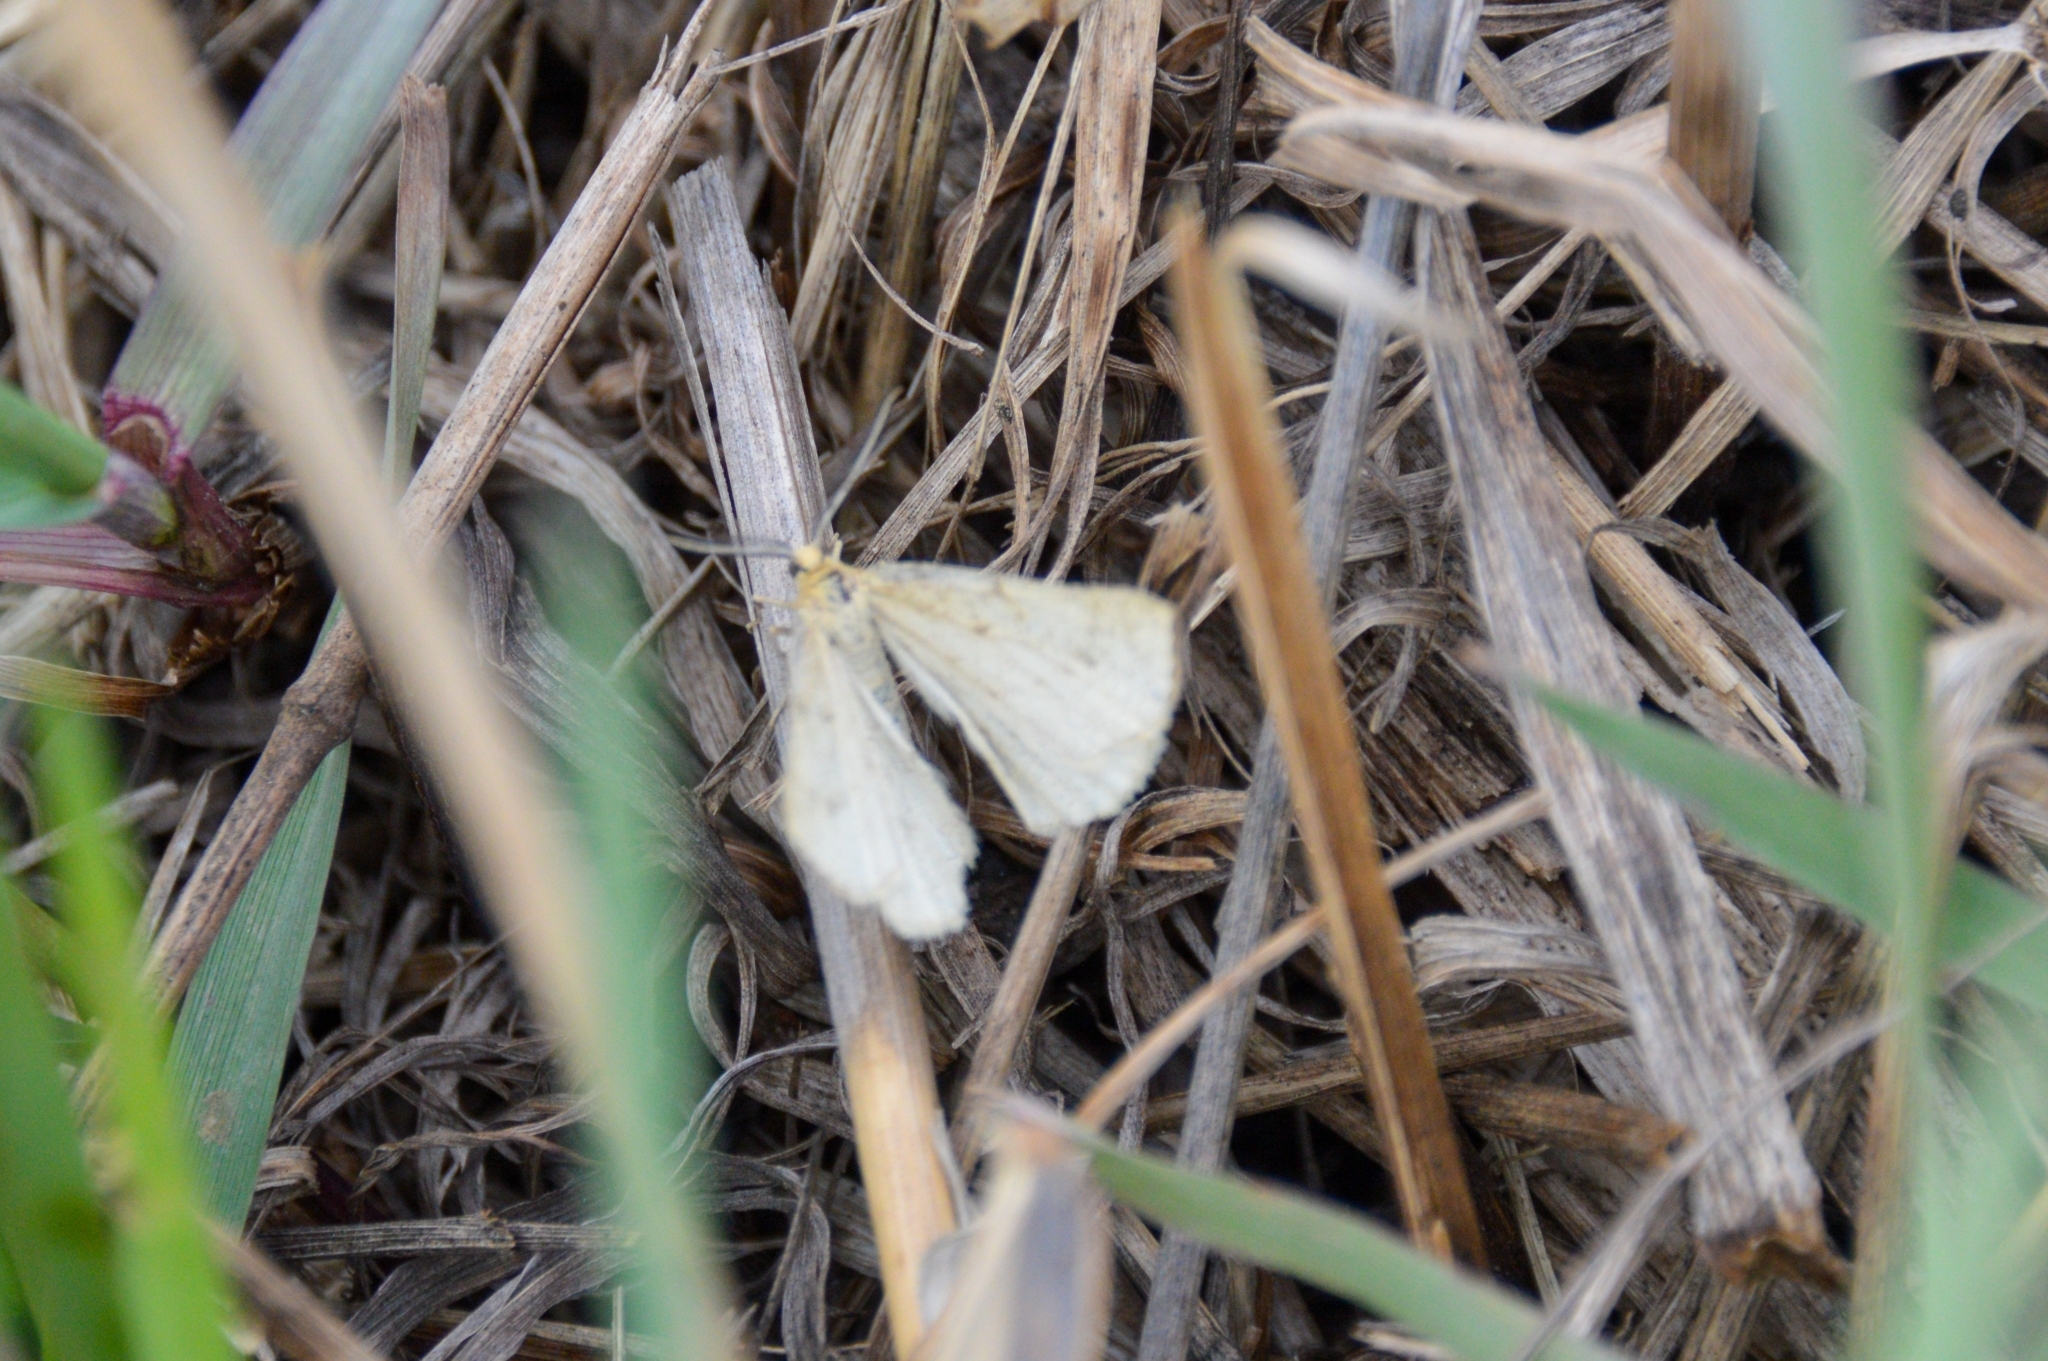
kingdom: Animalia
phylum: Arthropoda
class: Insecta
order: Lepidoptera
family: Geometridae
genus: Hypoxystis
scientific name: Hypoxystis pluviaria
